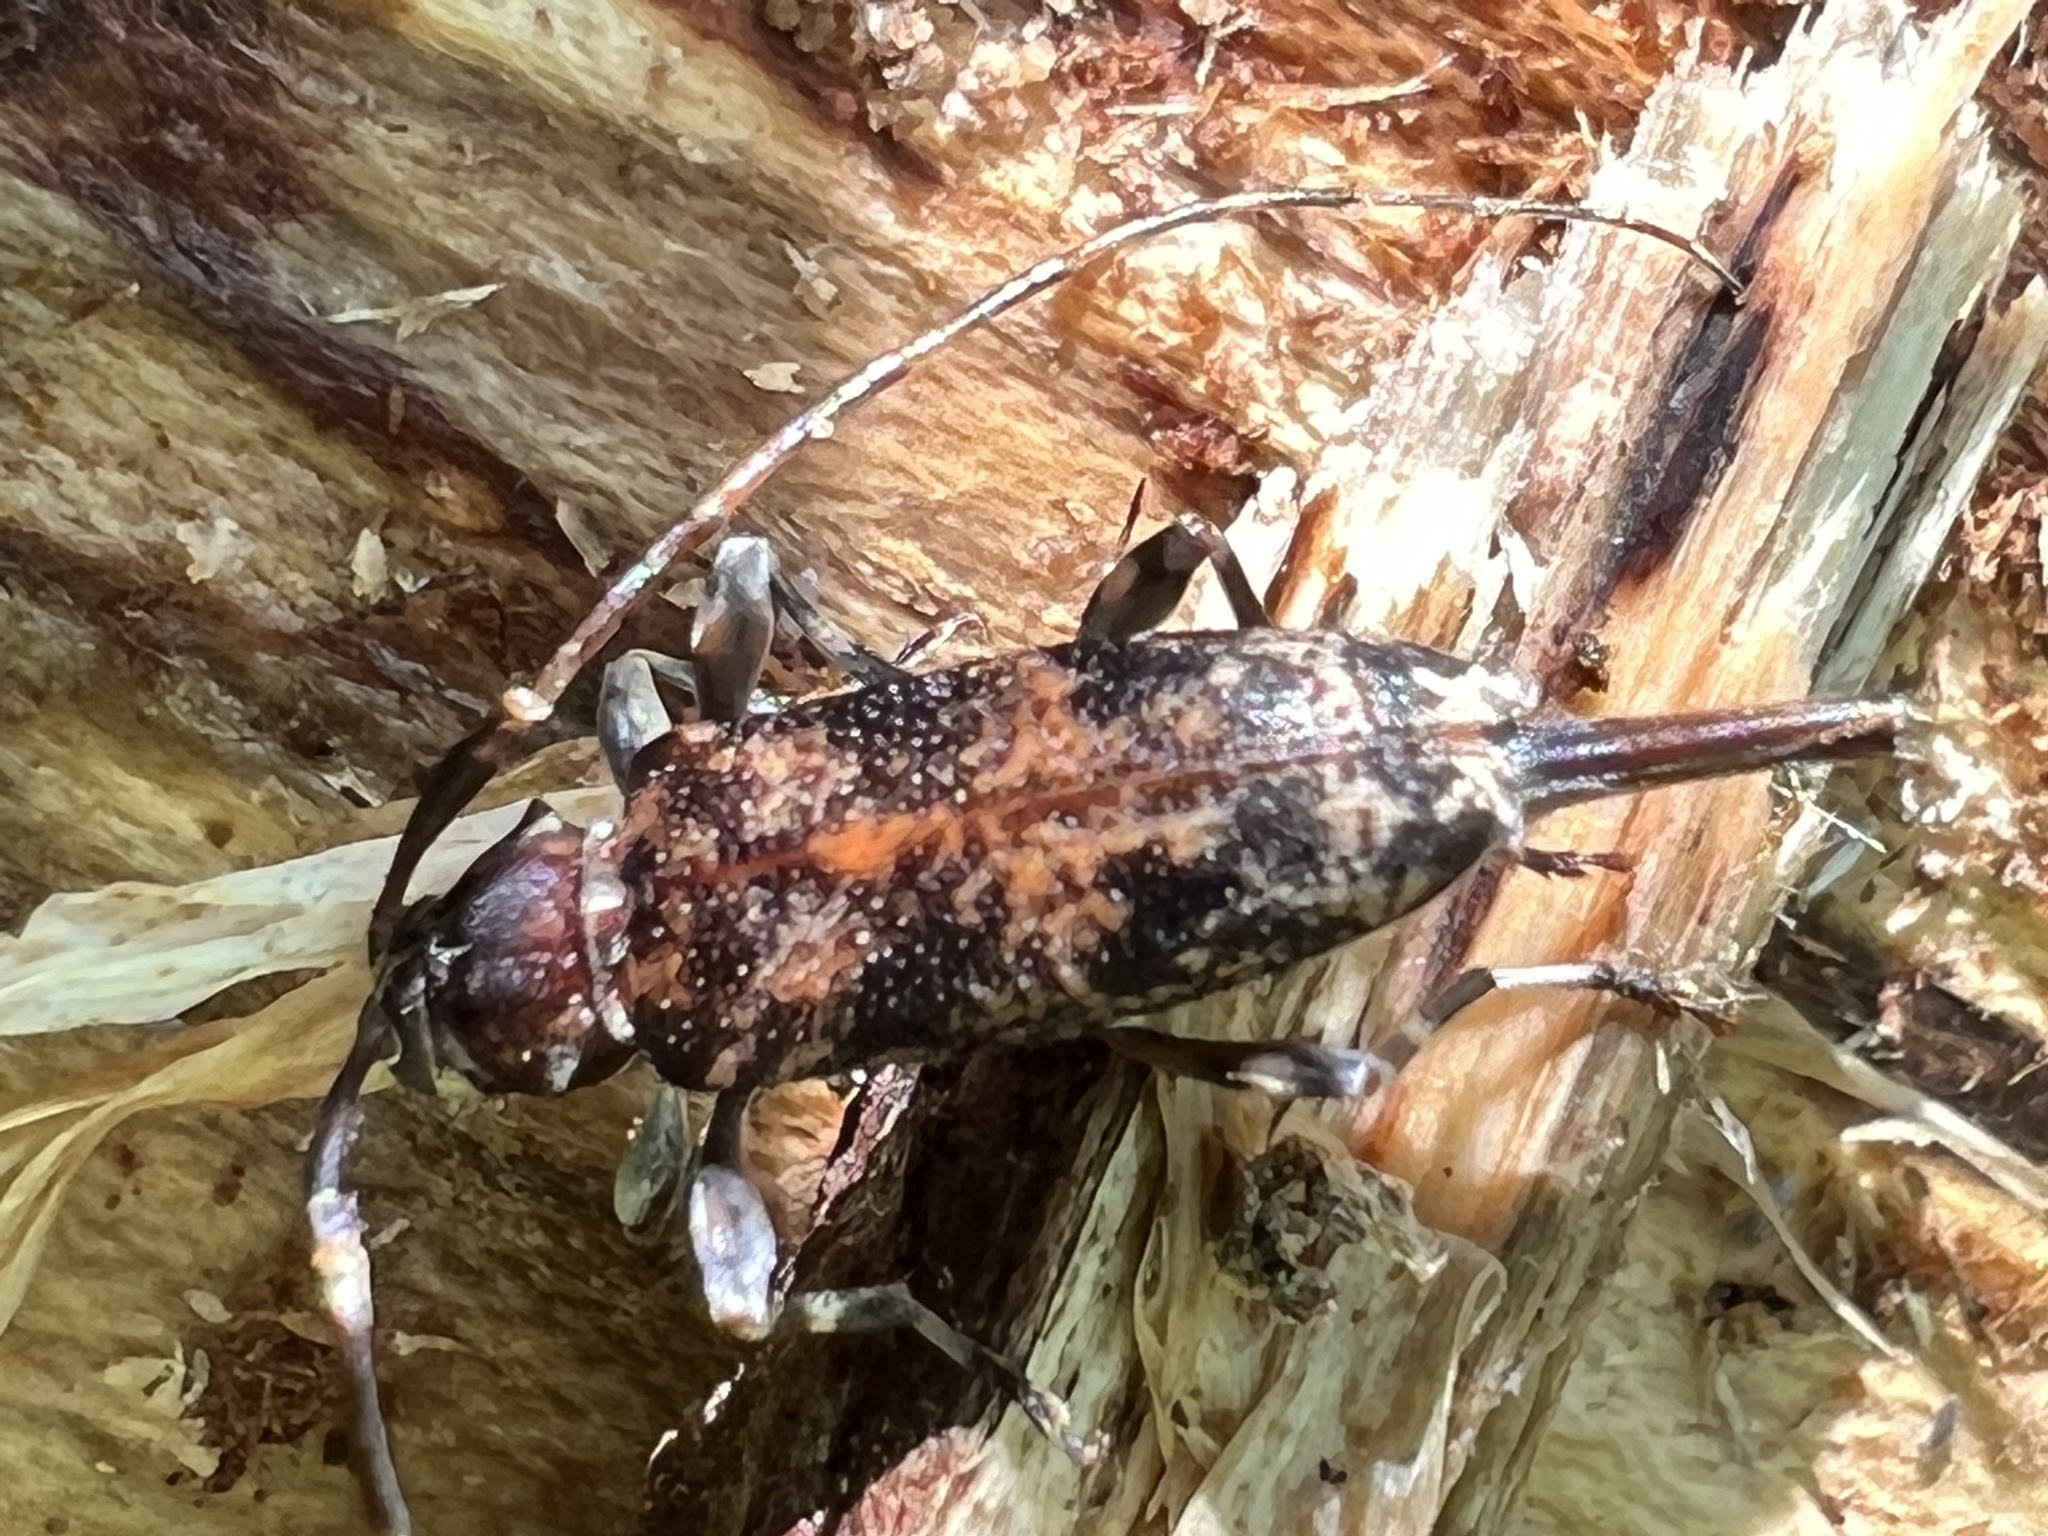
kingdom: Animalia
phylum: Arthropoda
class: Insecta
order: Coleoptera
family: Cerambycidae
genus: Graphisurus
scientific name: Graphisurus fasciatus
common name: Banded graphisurus
